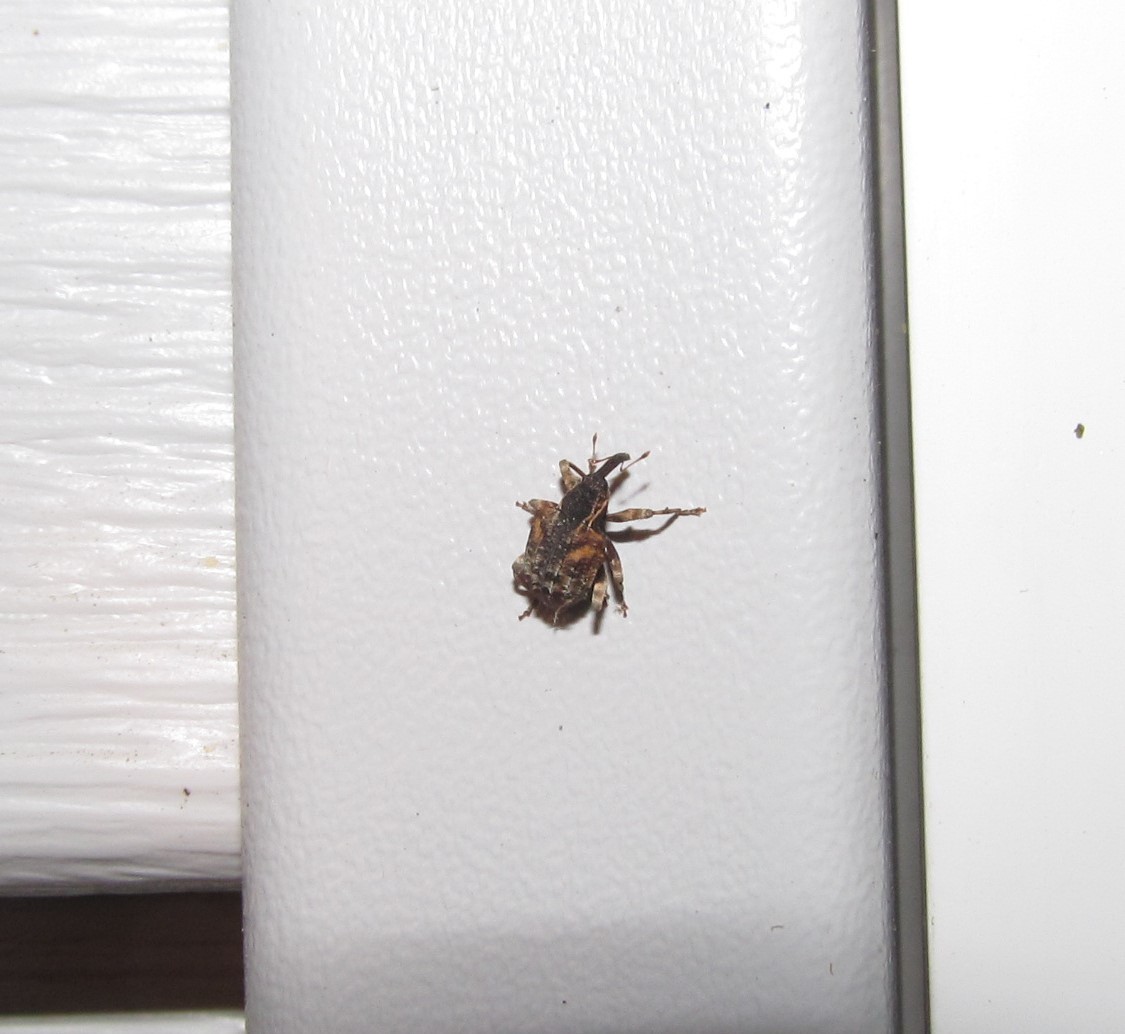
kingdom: Animalia
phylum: Arthropoda
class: Insecta
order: Coleoptera
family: Curculionidae
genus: Conotrachelus
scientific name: Conotrachelus anaglypticus
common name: Cambium curculio
